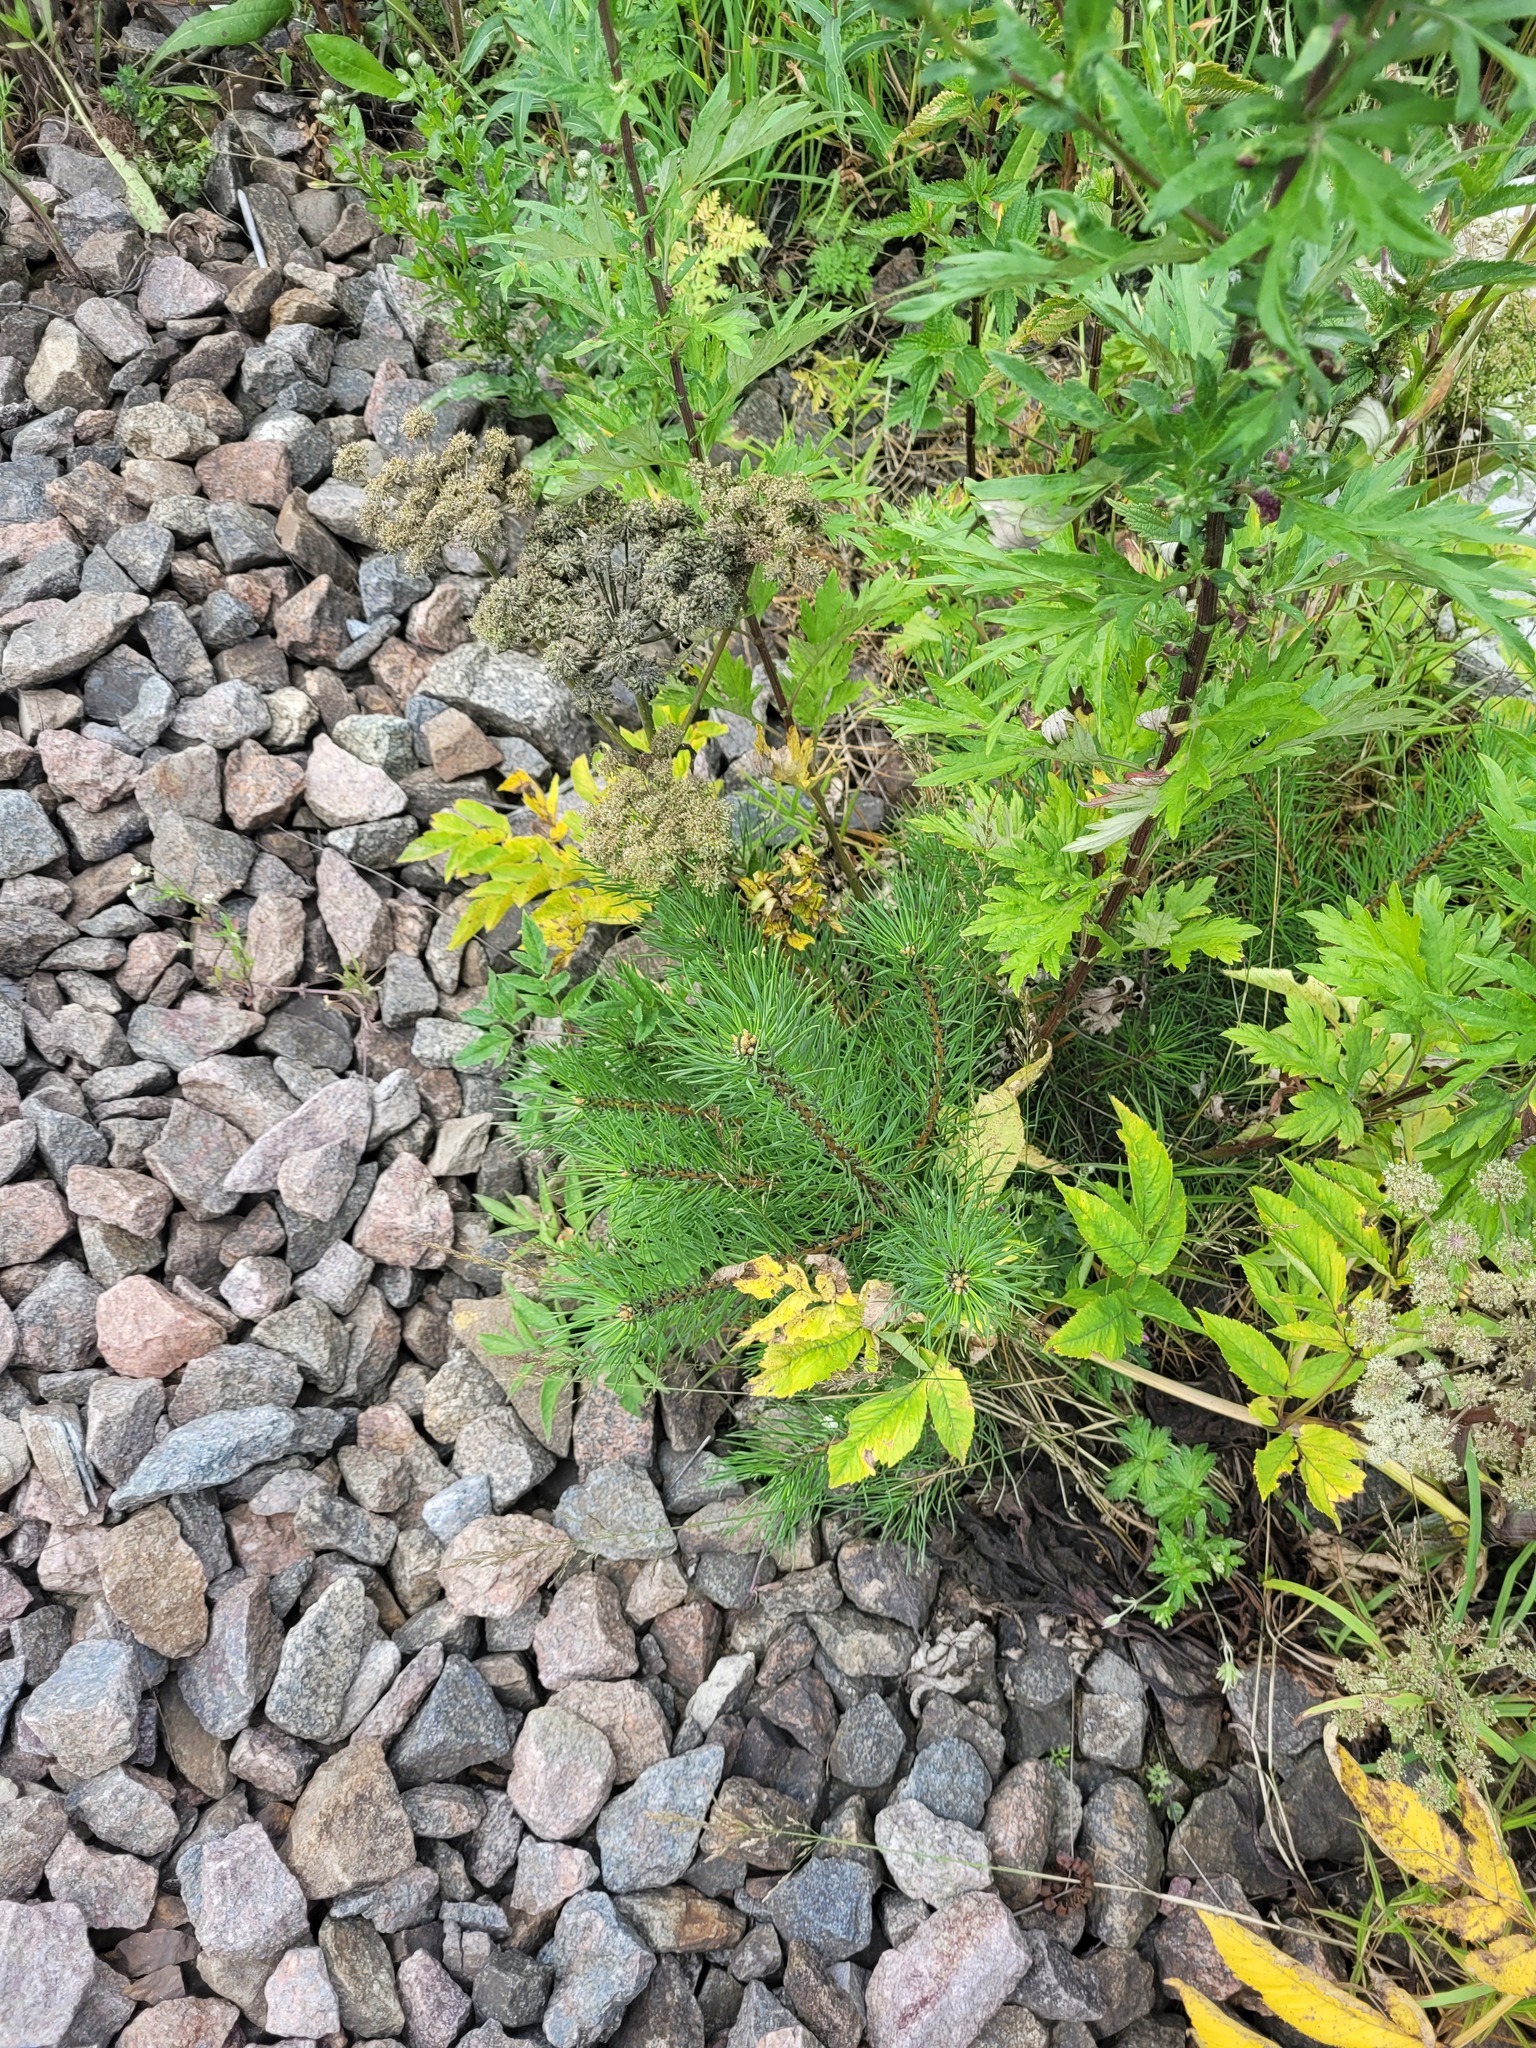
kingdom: Plantae
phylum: Tracheophyta
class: Pinopsida
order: Pinales
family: Pinaceae
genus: Pinus
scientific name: Pinus sylvestris
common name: Scots pine
